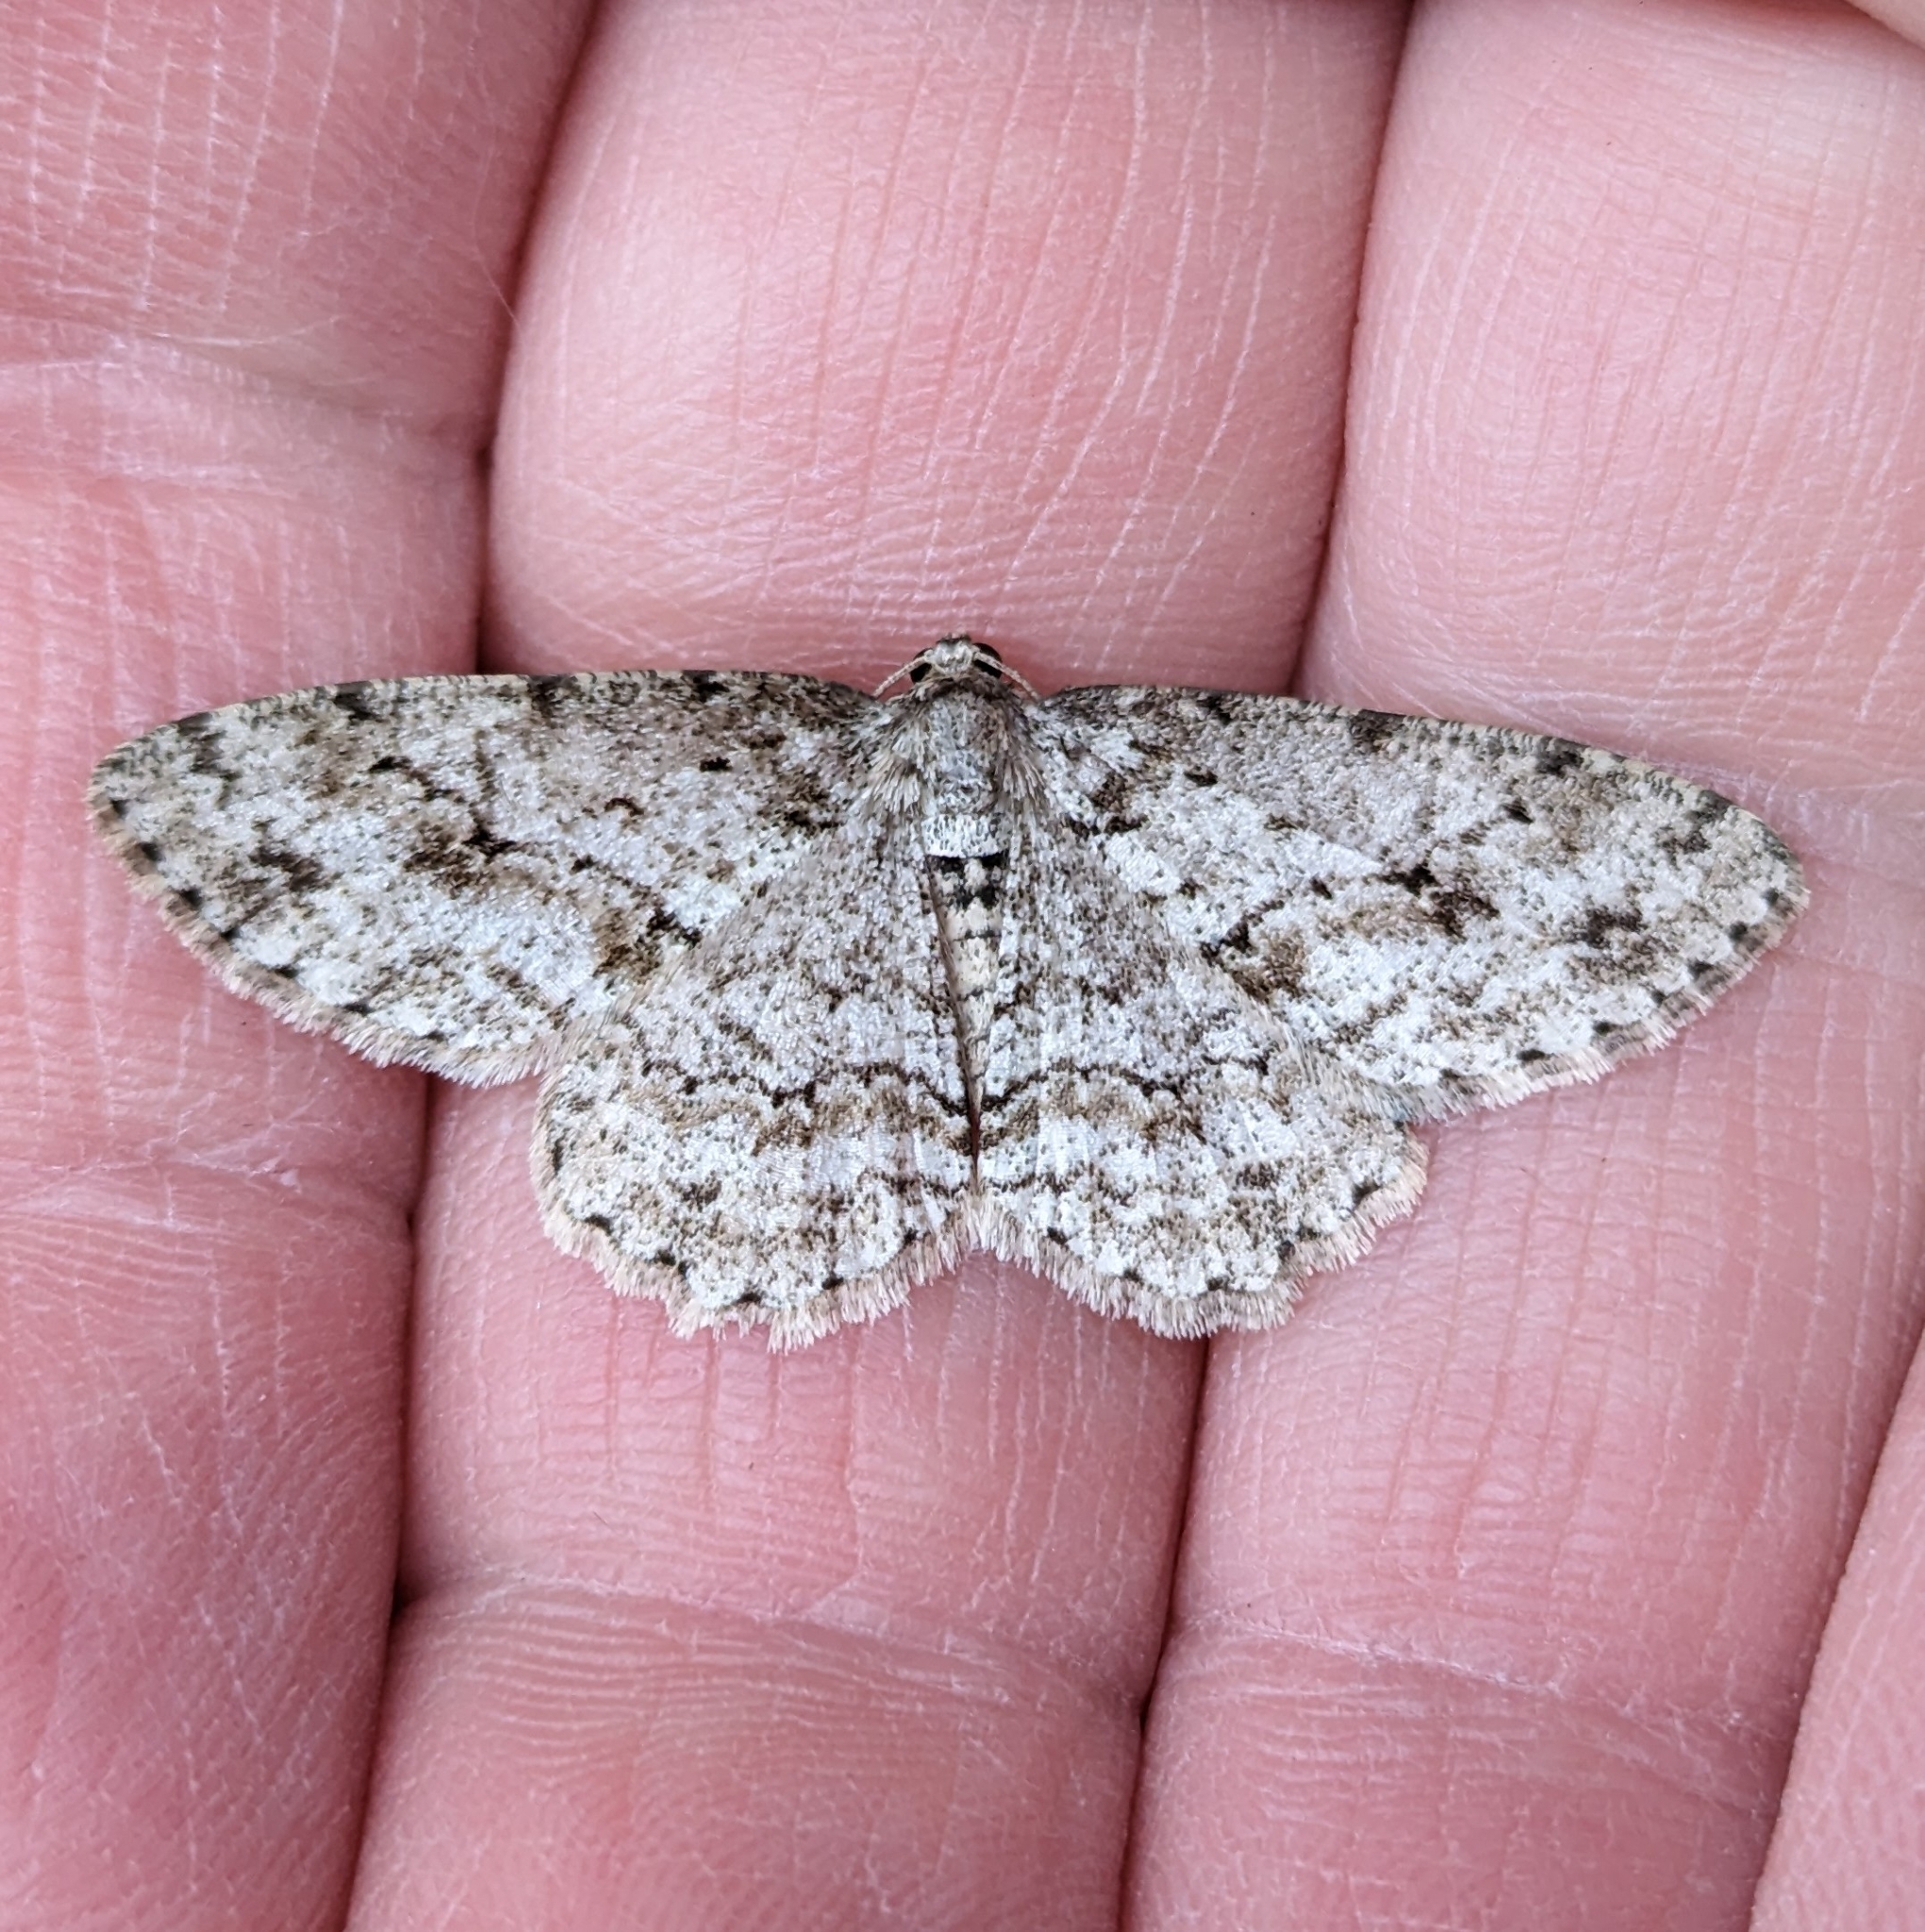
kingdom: Animalia
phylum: Arthropoda
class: Insecta
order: Lepidoptera
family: Geometridae
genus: Ectropis
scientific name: Ectropis crepuscularia
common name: Engrailed
